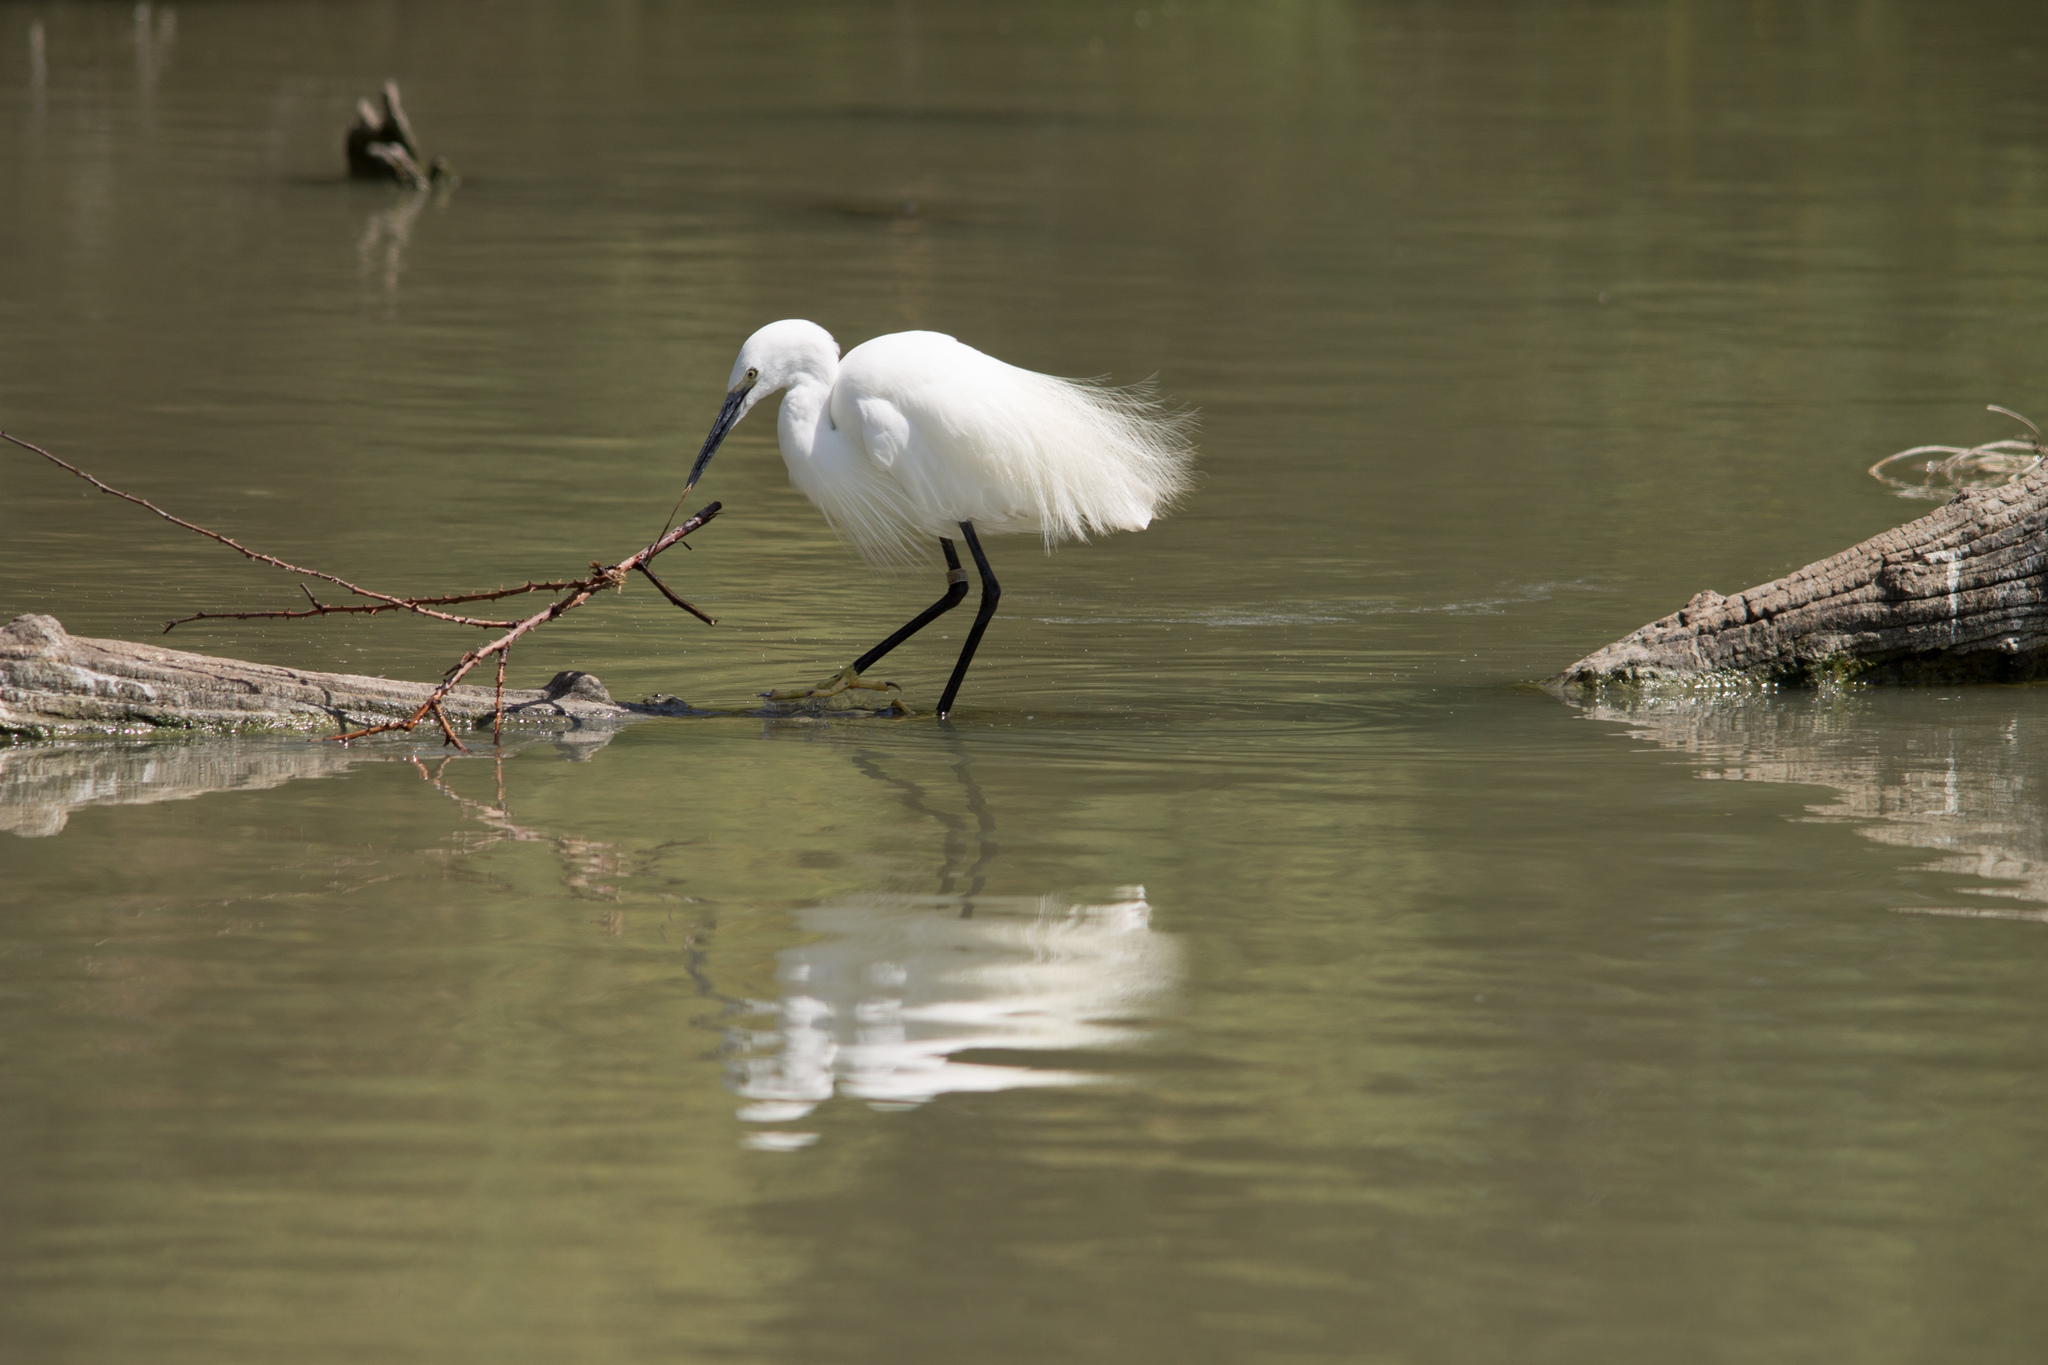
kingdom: Animalia
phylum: Chordata
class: Aves
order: Pelecaniformes
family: Ardeidae
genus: Egretta
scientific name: Egretta garzetta
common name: Little egret
